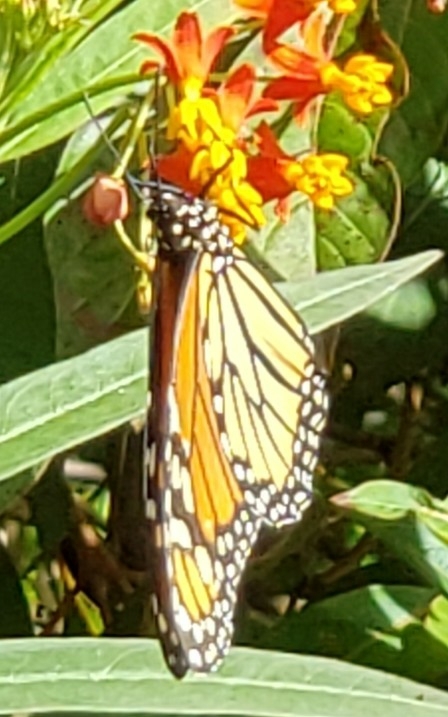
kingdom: Animalia
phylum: Arthropoda
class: Insecta
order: Lepidoptera
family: Nymphalidae
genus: Danaus
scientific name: Danaus plexippus
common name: Monarch
